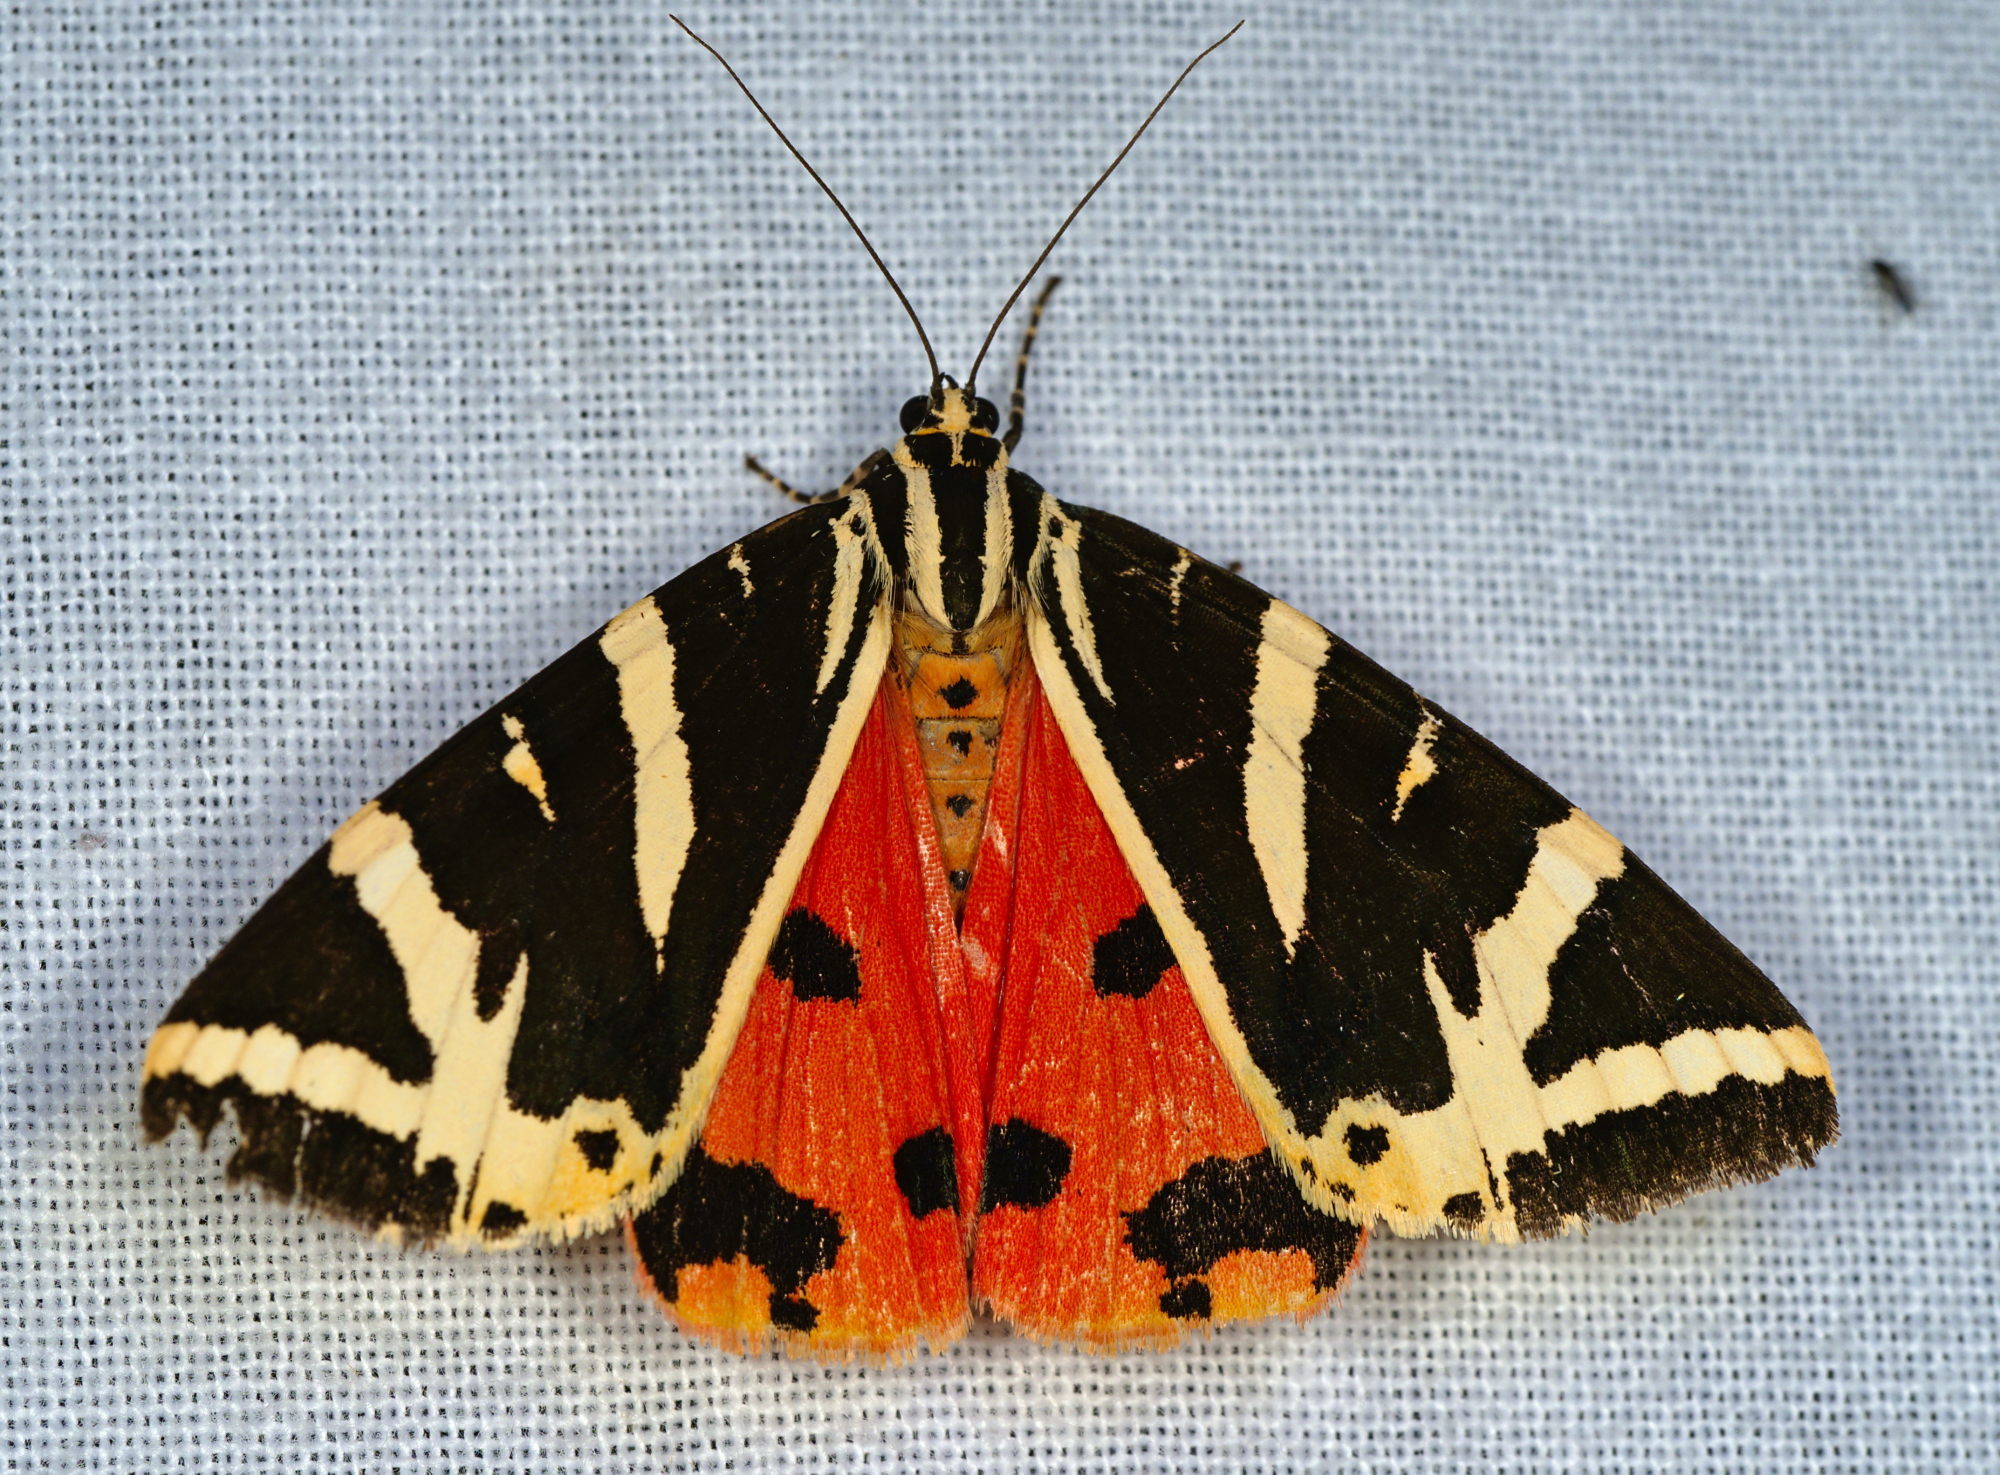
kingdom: Animalia
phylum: Arthropoda
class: Insecta
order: Lepidoptera
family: Erebidae
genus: Euplagia
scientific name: Euplagia quadripunctaria
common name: Jersey tiger
